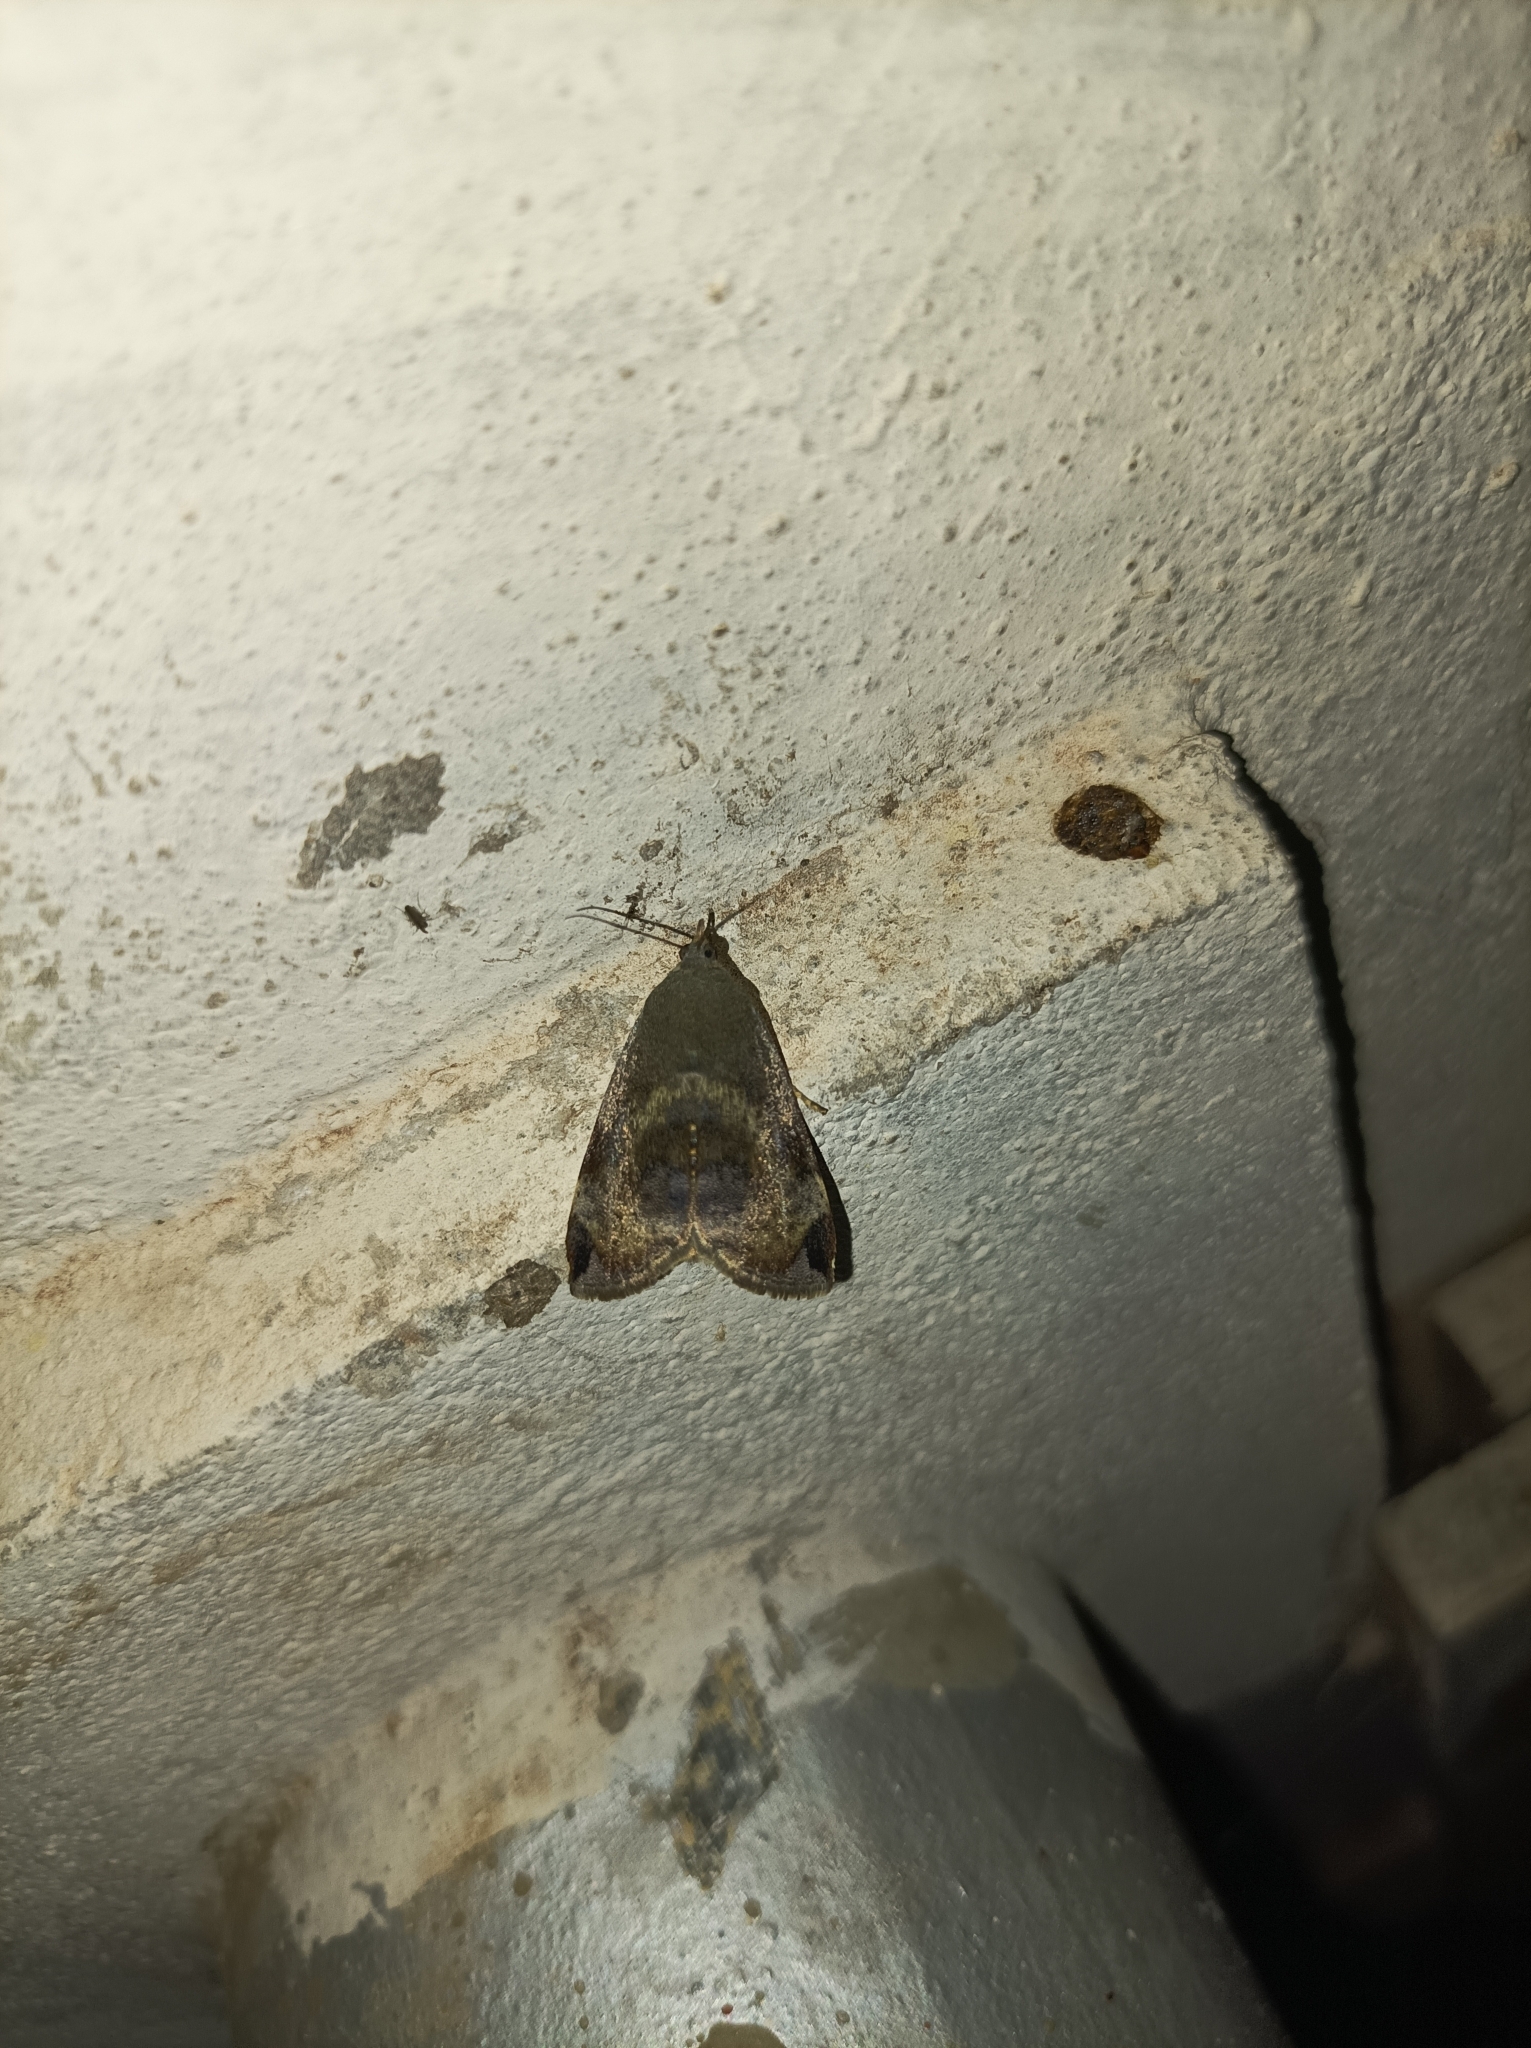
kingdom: Animalia
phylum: Arthropoda
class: Insecta
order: Lepidoptera
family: Hyblaeidae
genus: Hyblaea
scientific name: Hyblaea puera
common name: Teak defoliator moth
